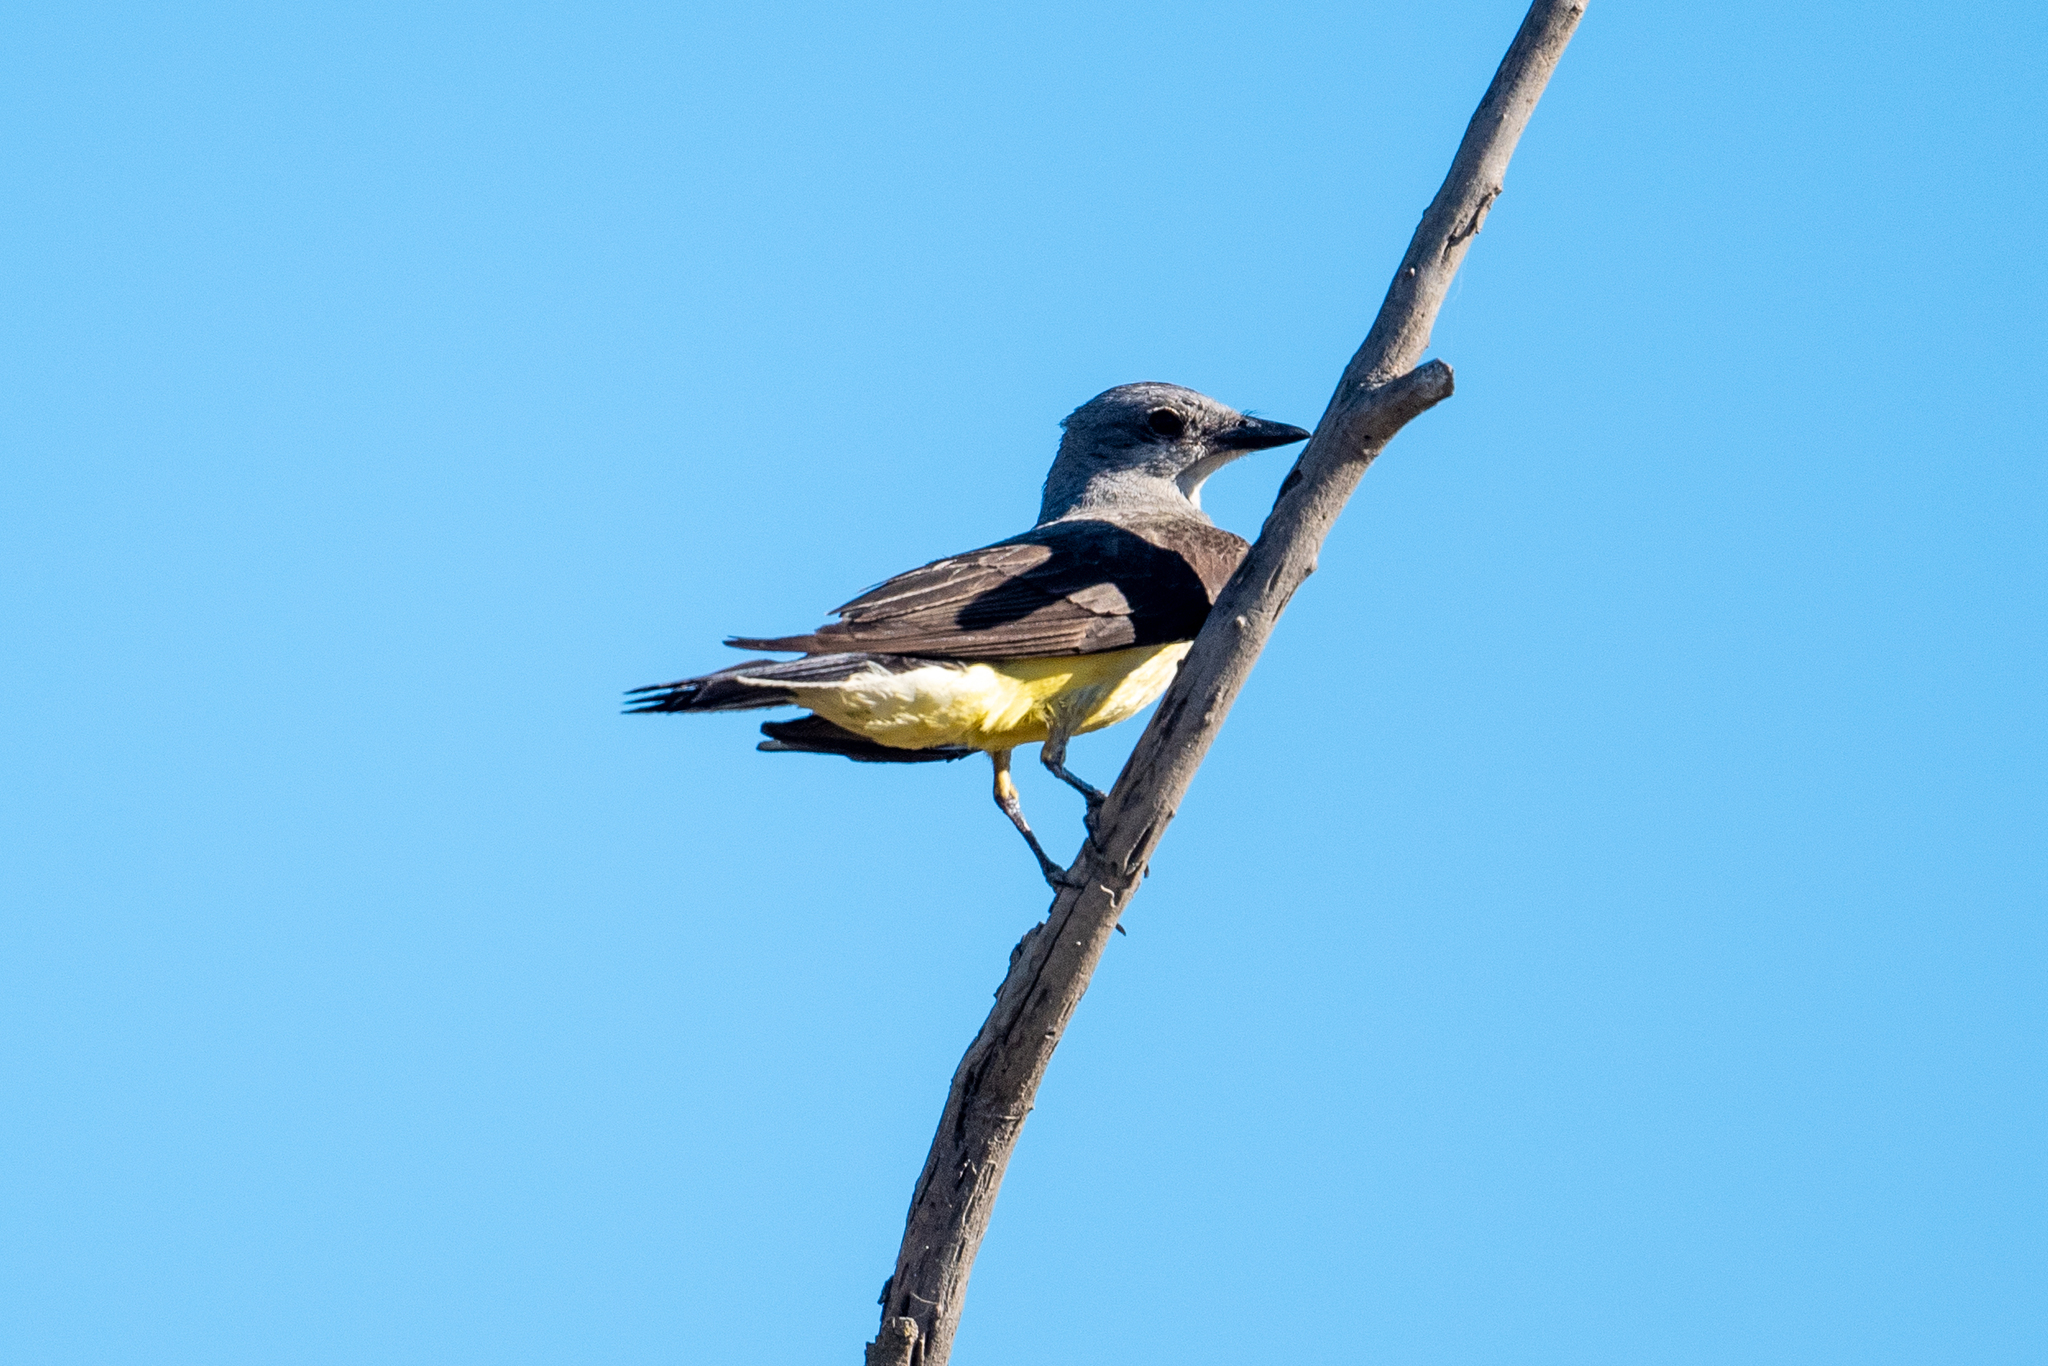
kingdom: Animalia
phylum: Chordata
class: Aves
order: Passeriformes
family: Tyrannidae
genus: Tyrannus
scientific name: Tyrannus verticalis
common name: Western kingbird
